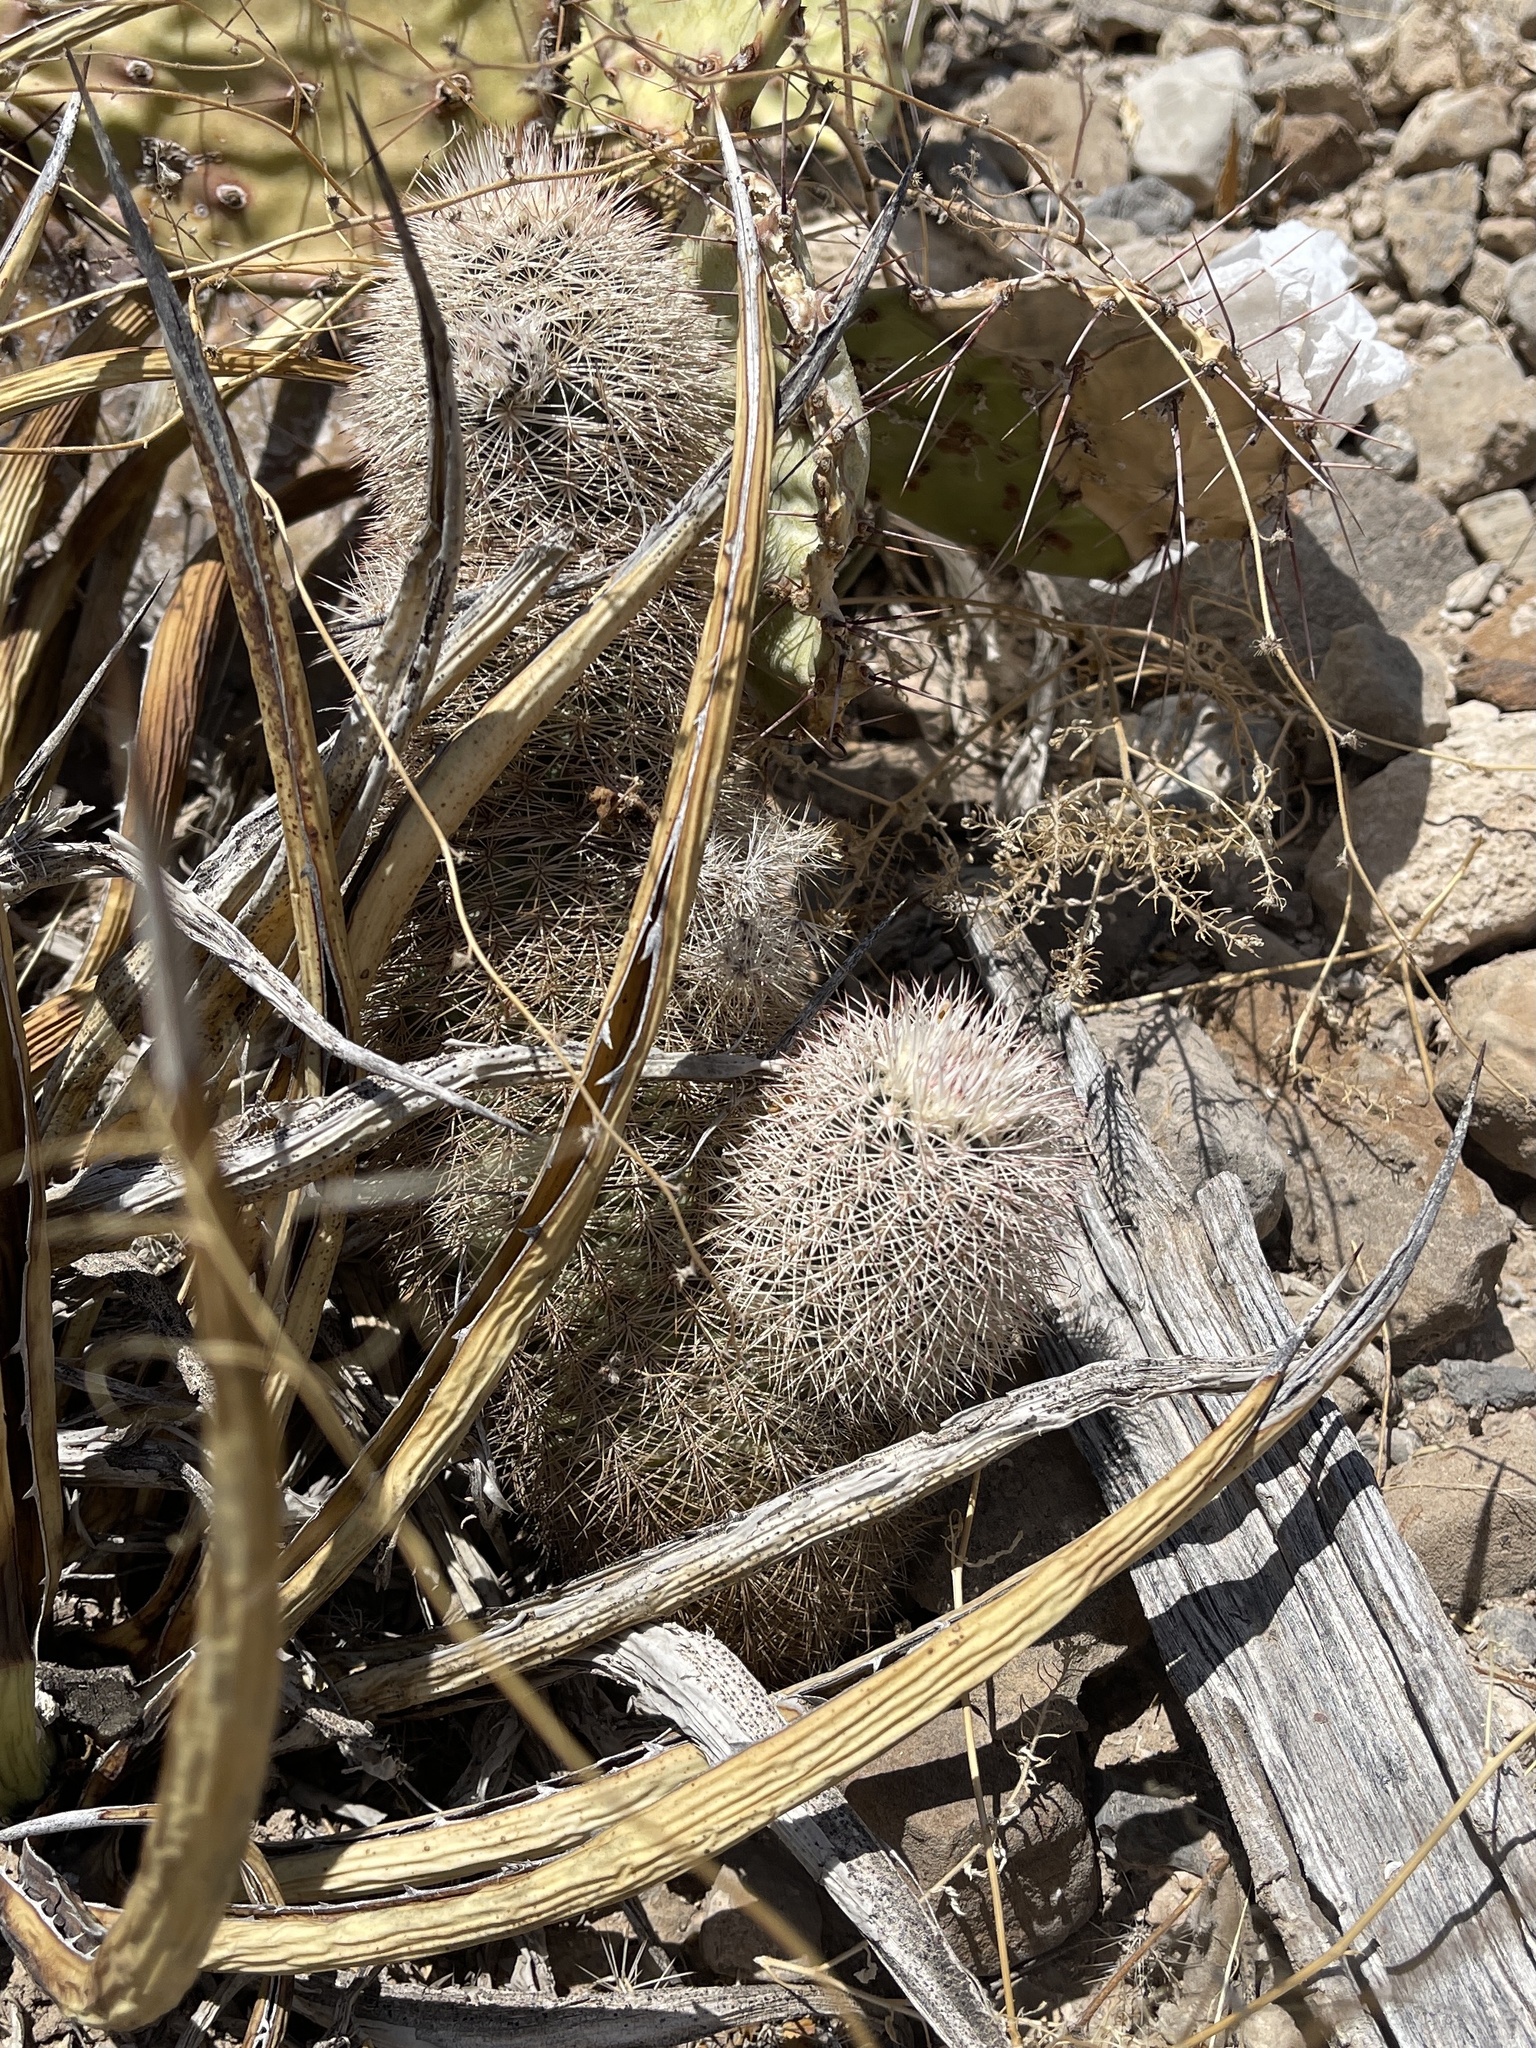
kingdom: Plantae
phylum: Tracheophyta
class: Magnoliopsida
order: Caryophyllales
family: Cactaceae
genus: Echinocereus
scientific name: Echinocereus dasyacanthus
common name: Spiny hedgehog cactus
